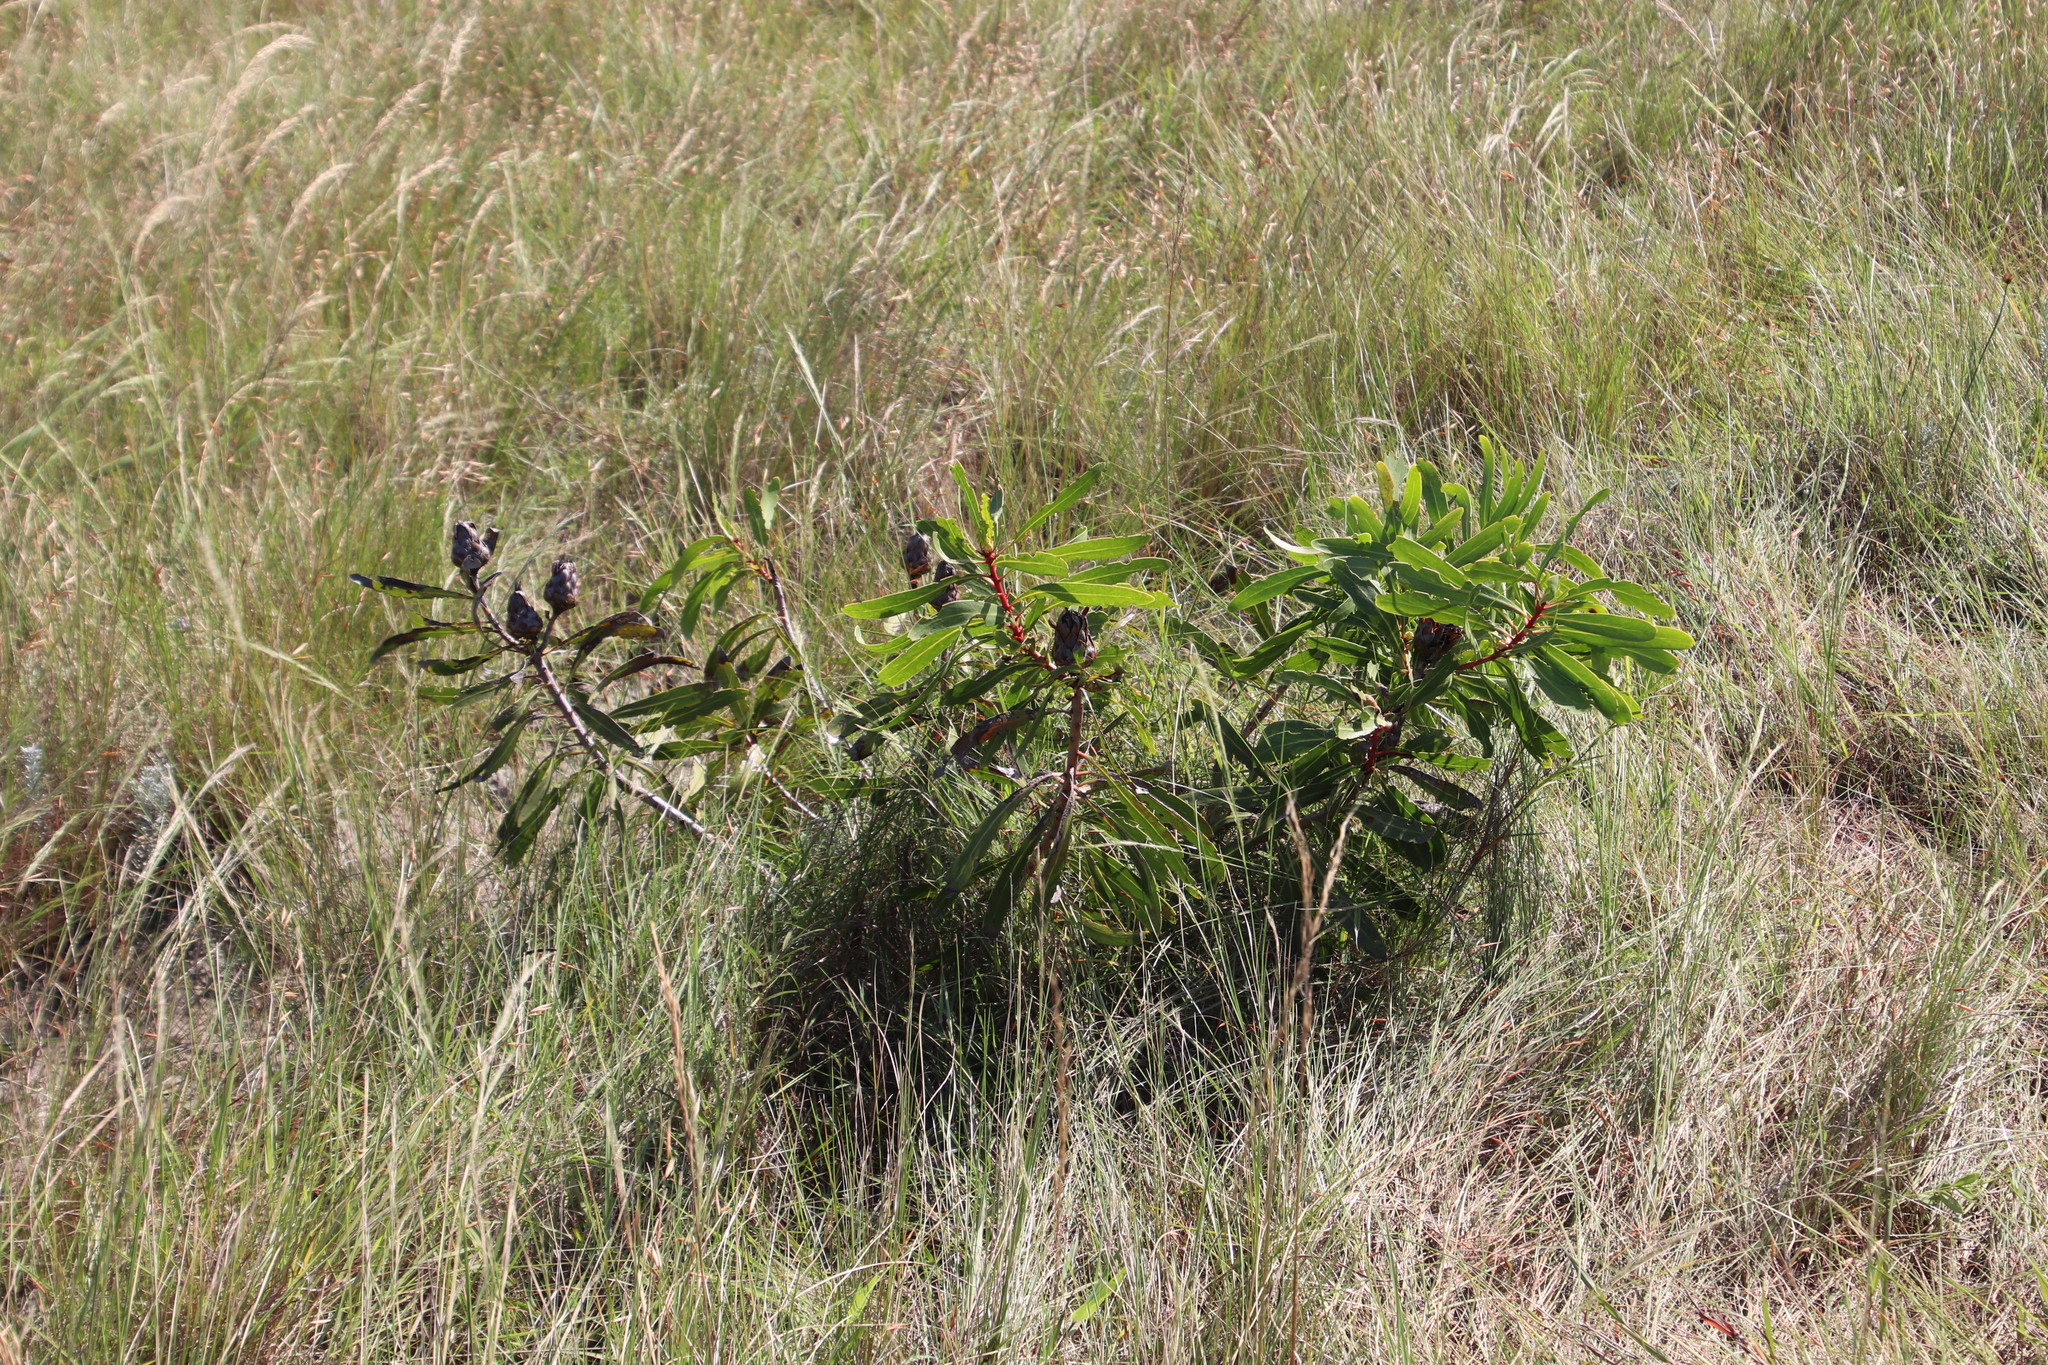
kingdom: Plantae
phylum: Tracheophyta
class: Magnoliopsida
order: Proteales
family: Proteaceae
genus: Protea
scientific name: Protea
